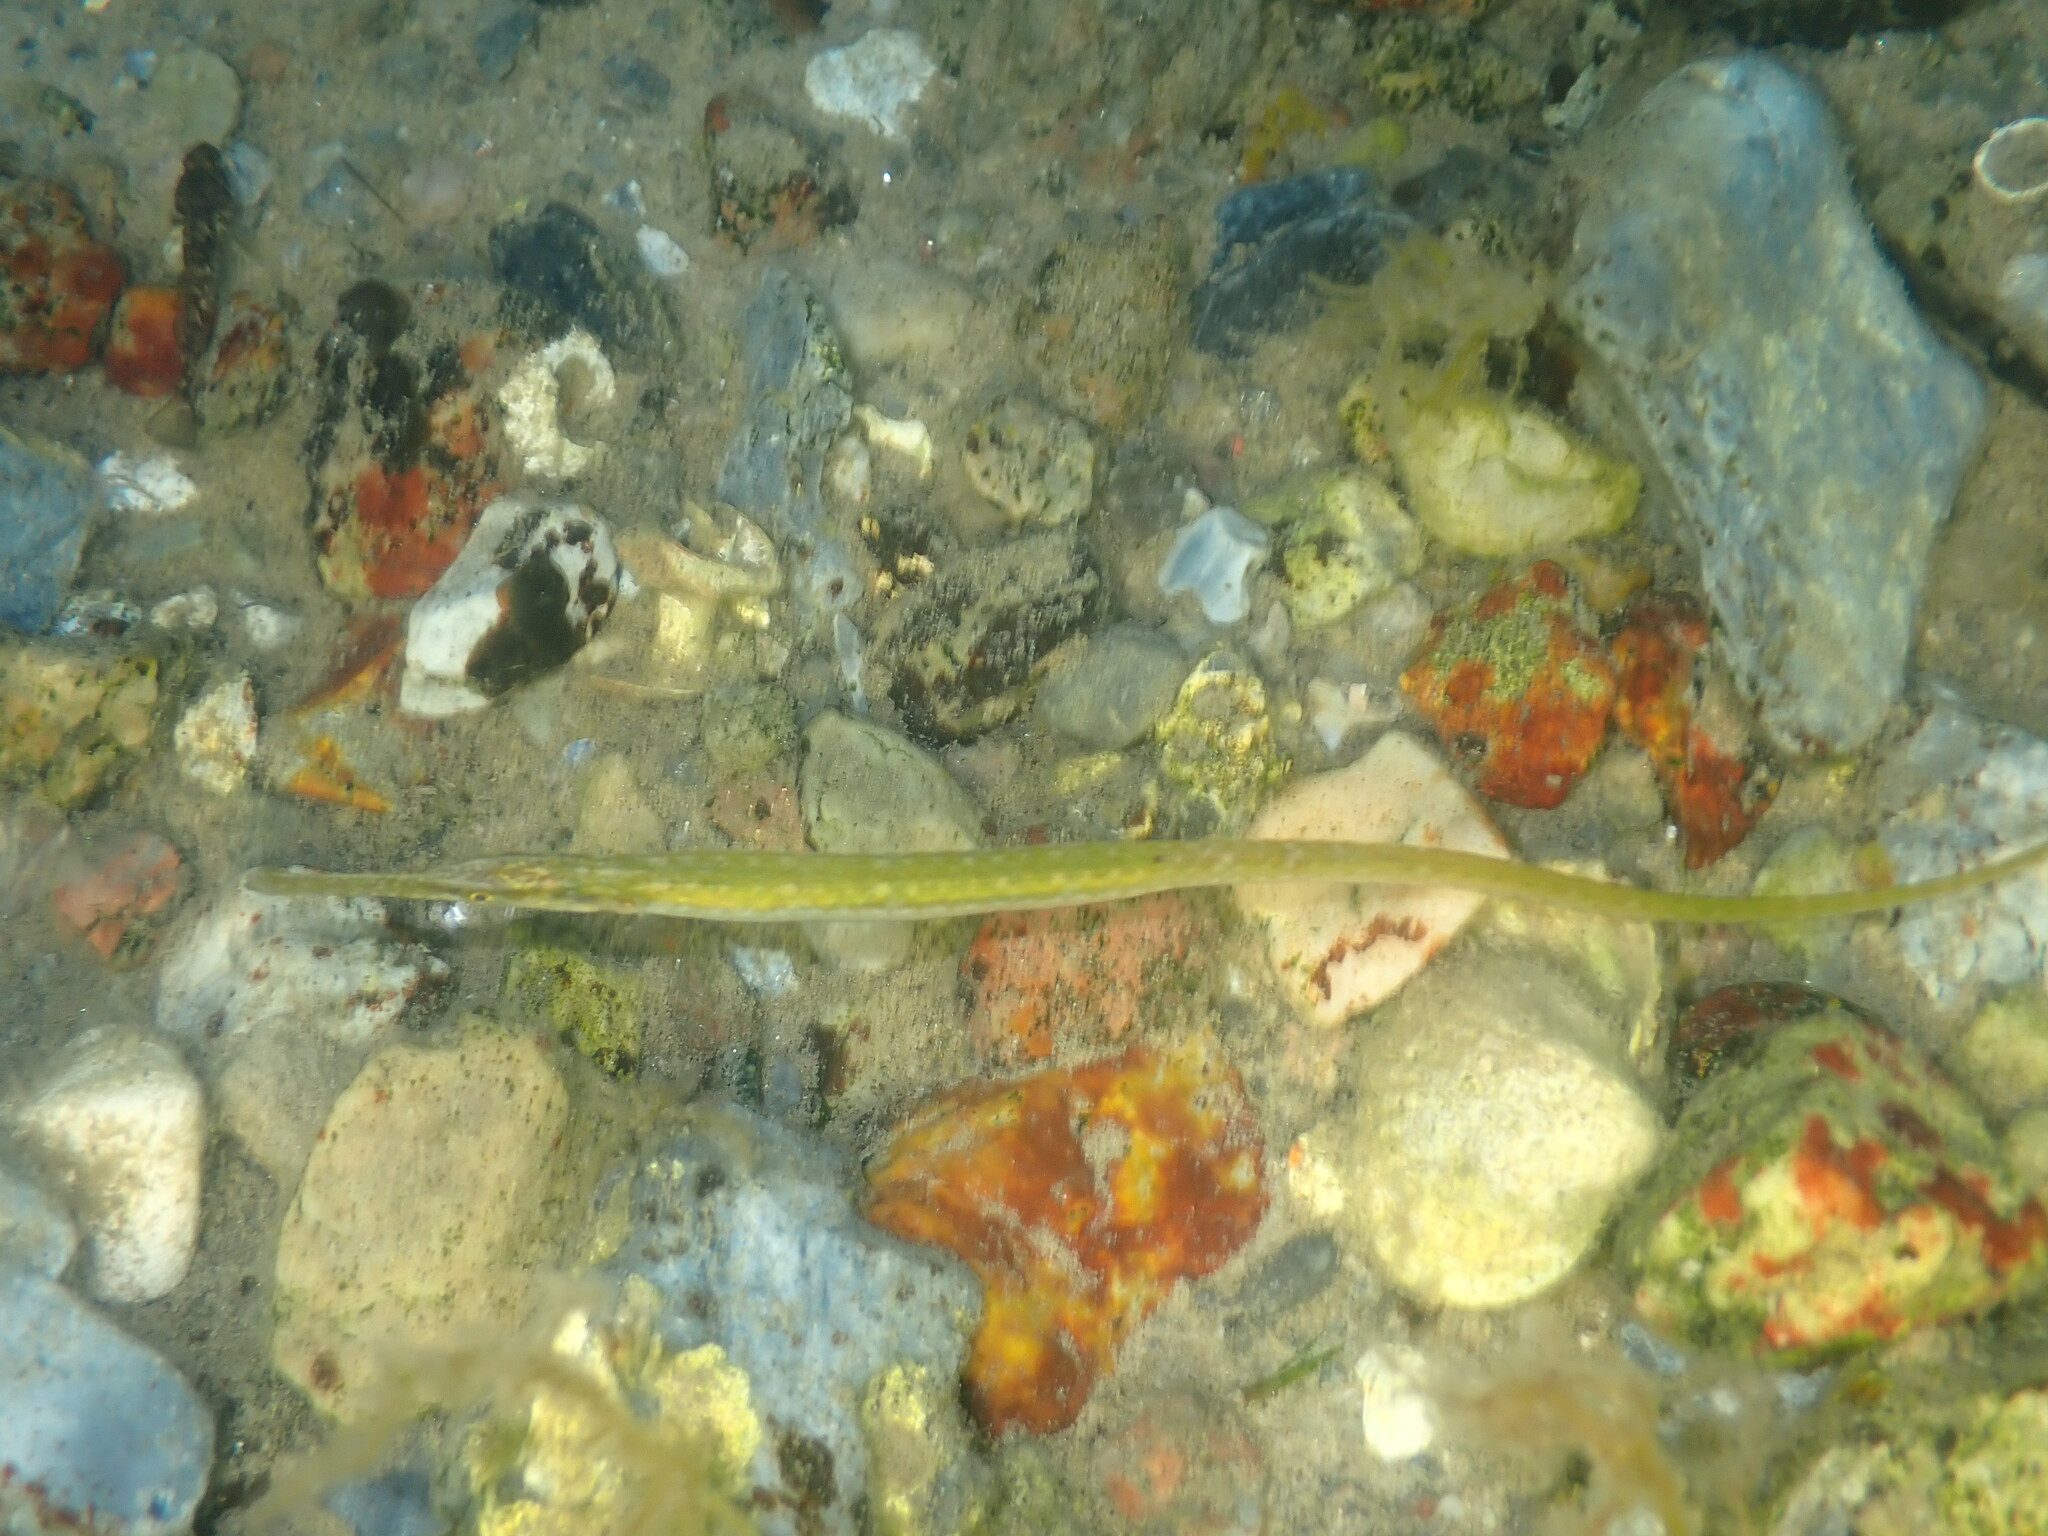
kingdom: Animalia
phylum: Chordata
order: Syngnathiformes
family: Syngnathidae
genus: Syngnathus
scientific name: Syngnathus typhle
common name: Deep-snouted pipefish
